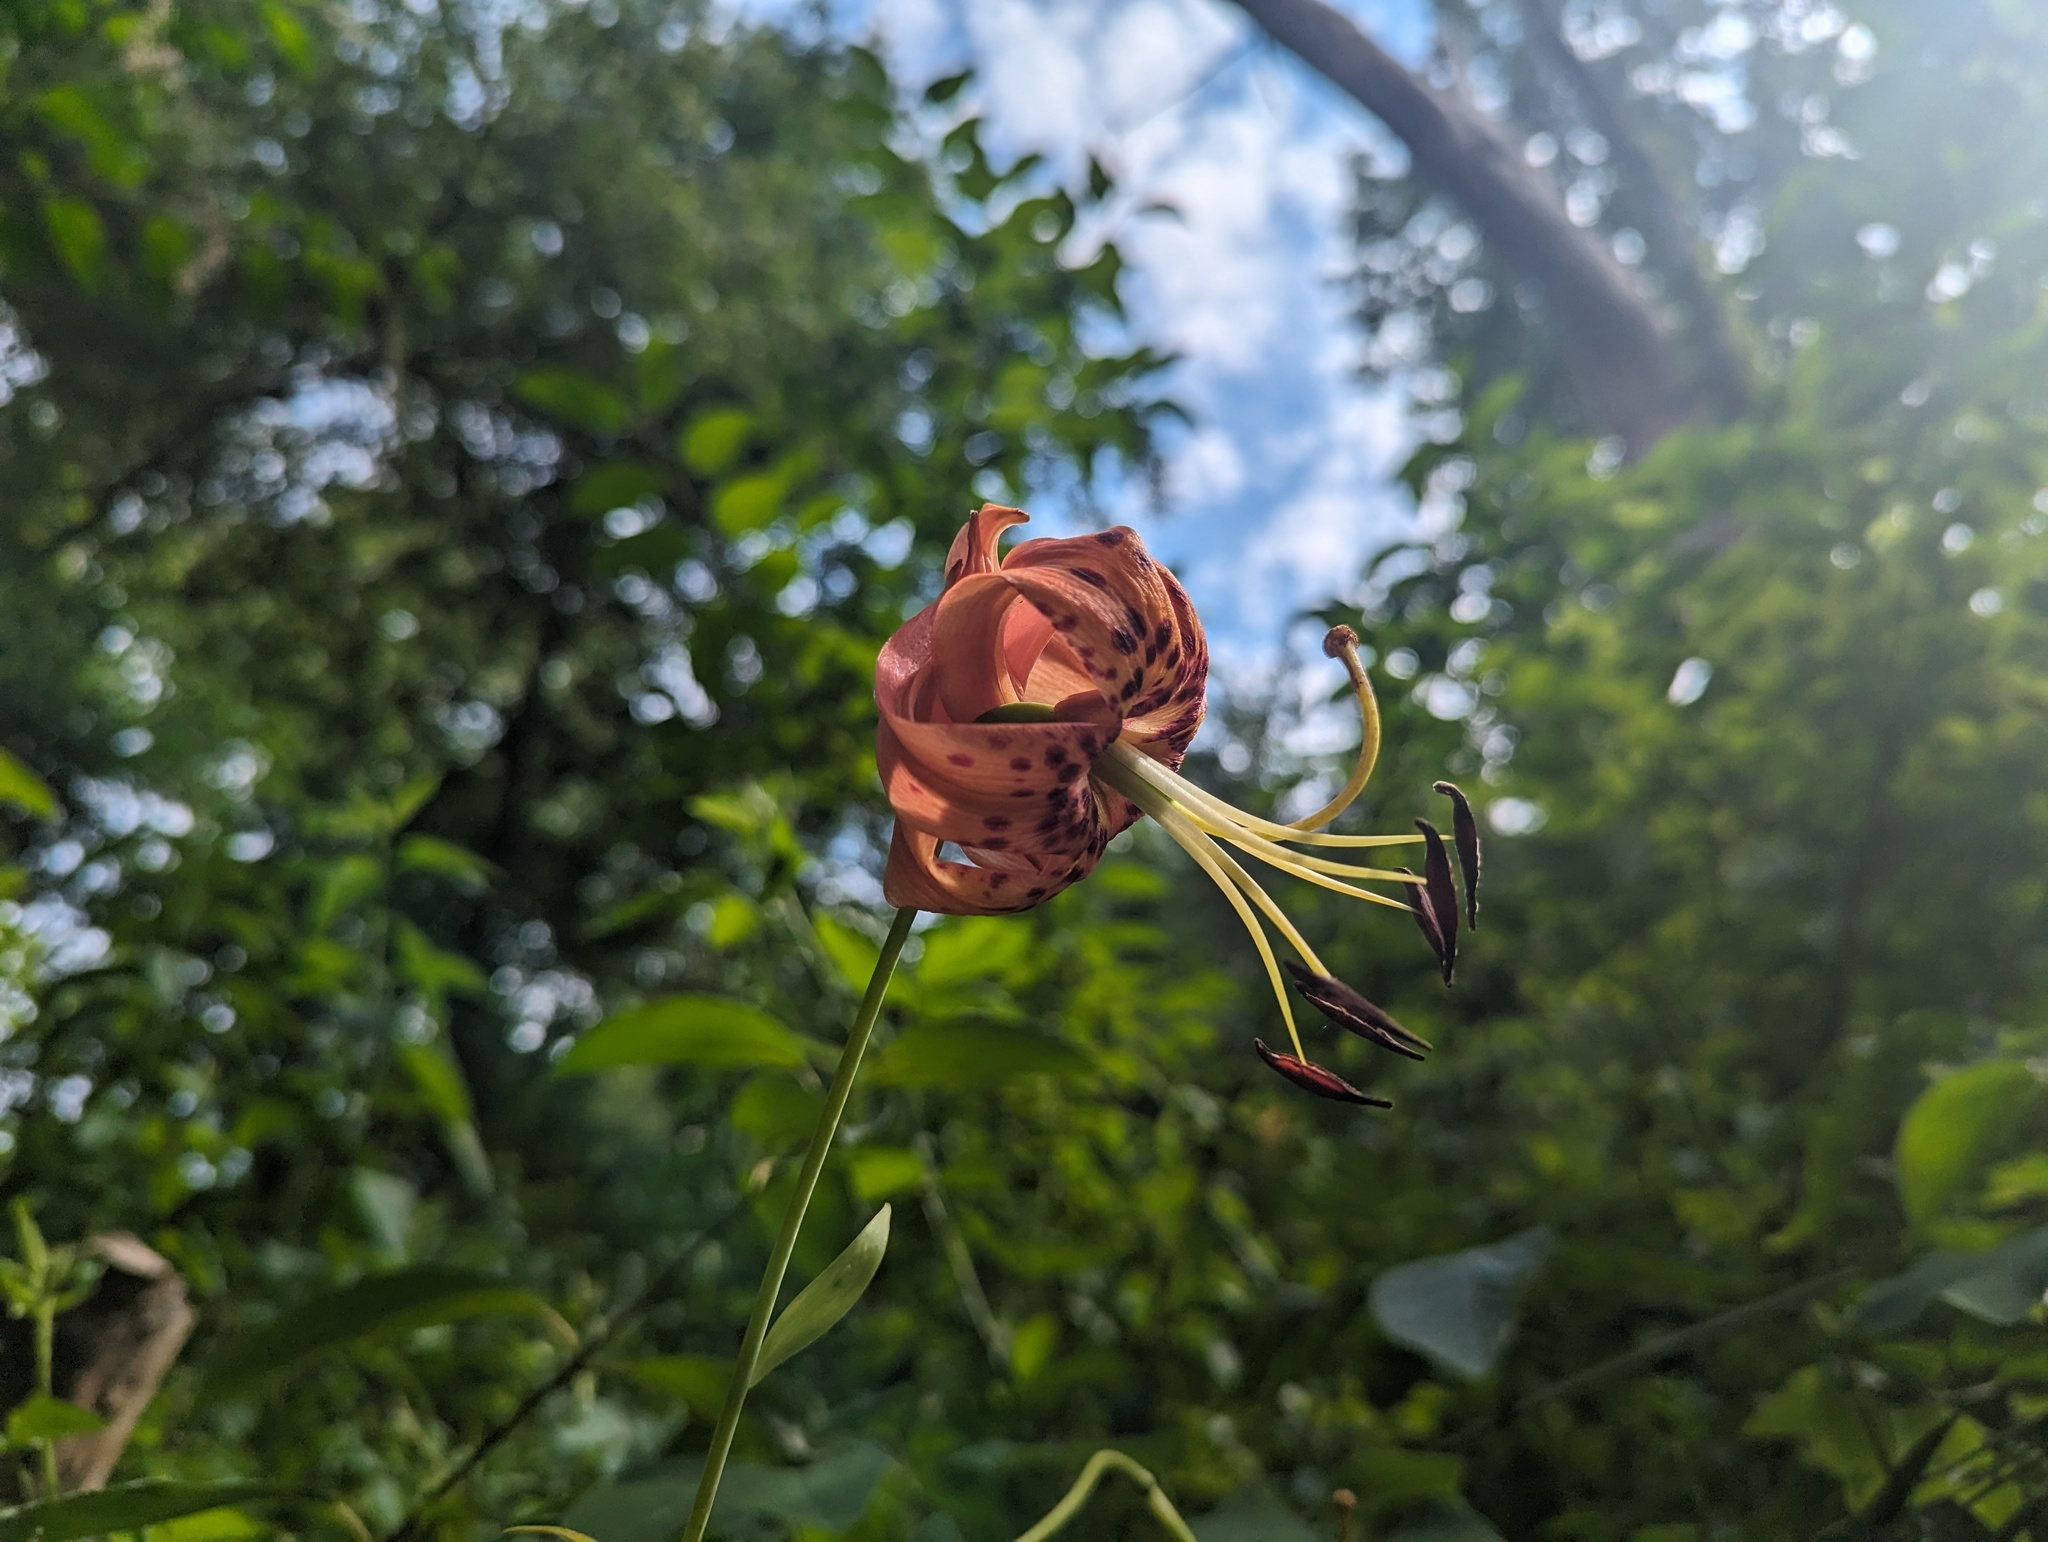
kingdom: Plantae
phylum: Tracheophyta
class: Liliopsida
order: Liliales
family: Liliaceae
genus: Lilium
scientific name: Lilium superbum
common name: American turk's-cap lily
